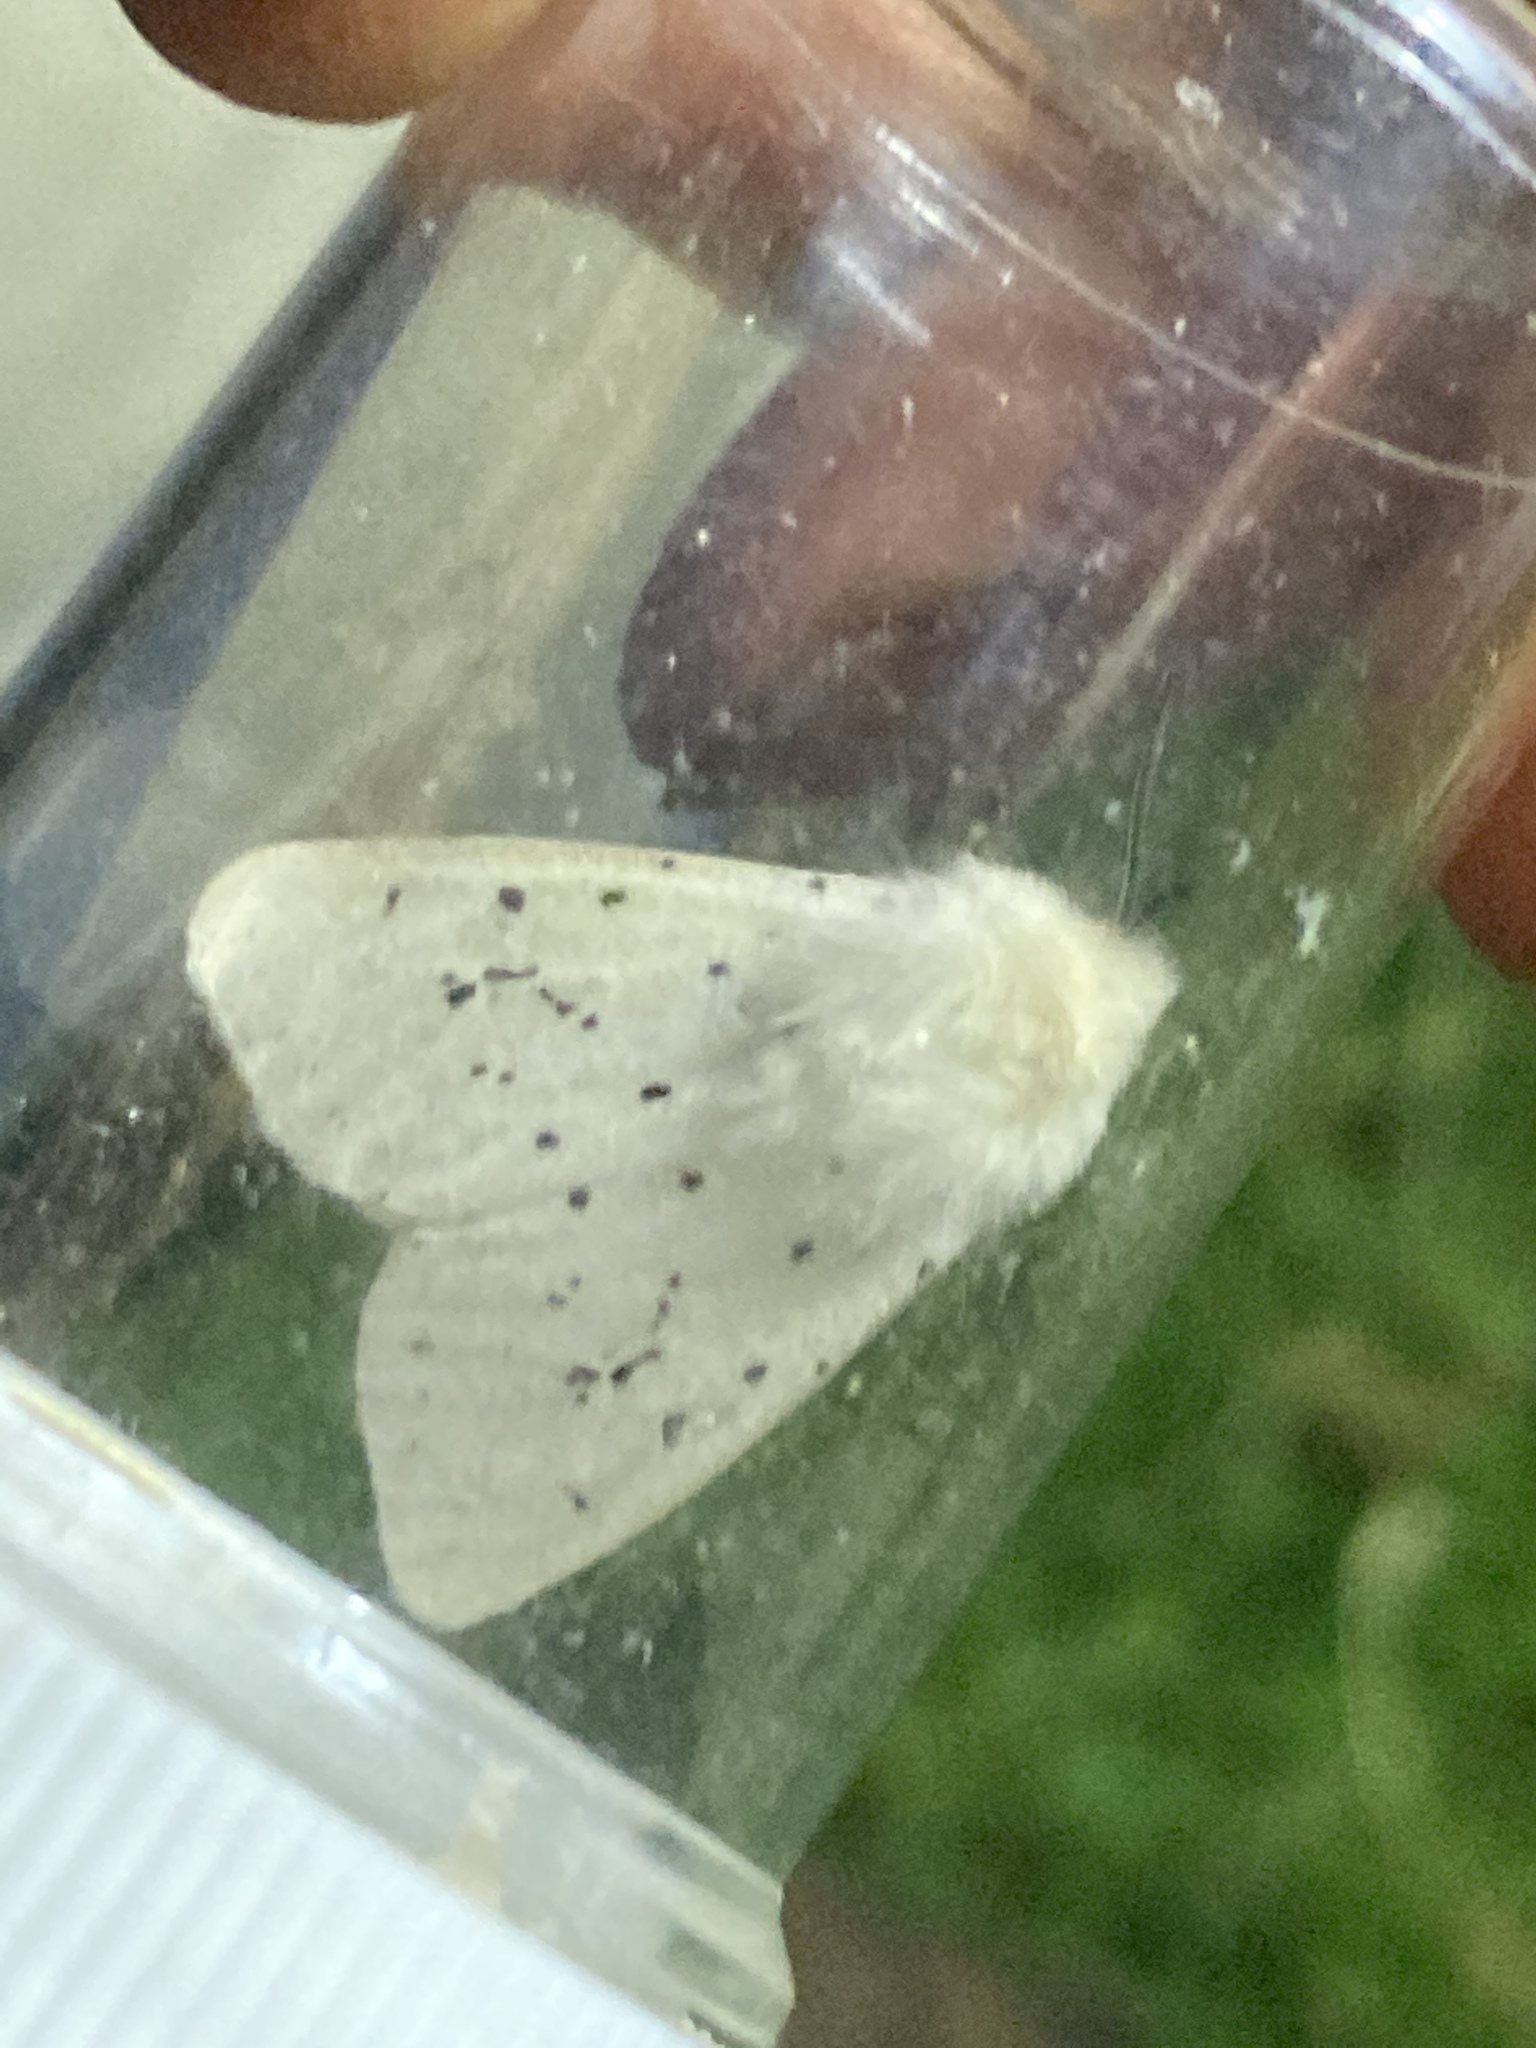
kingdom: Animalia
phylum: Arthropoda
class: Insecta
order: Lepidoptera
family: Erebidae
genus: Spilosoma
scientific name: Spilosoma lubricipeda
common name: White ermine
